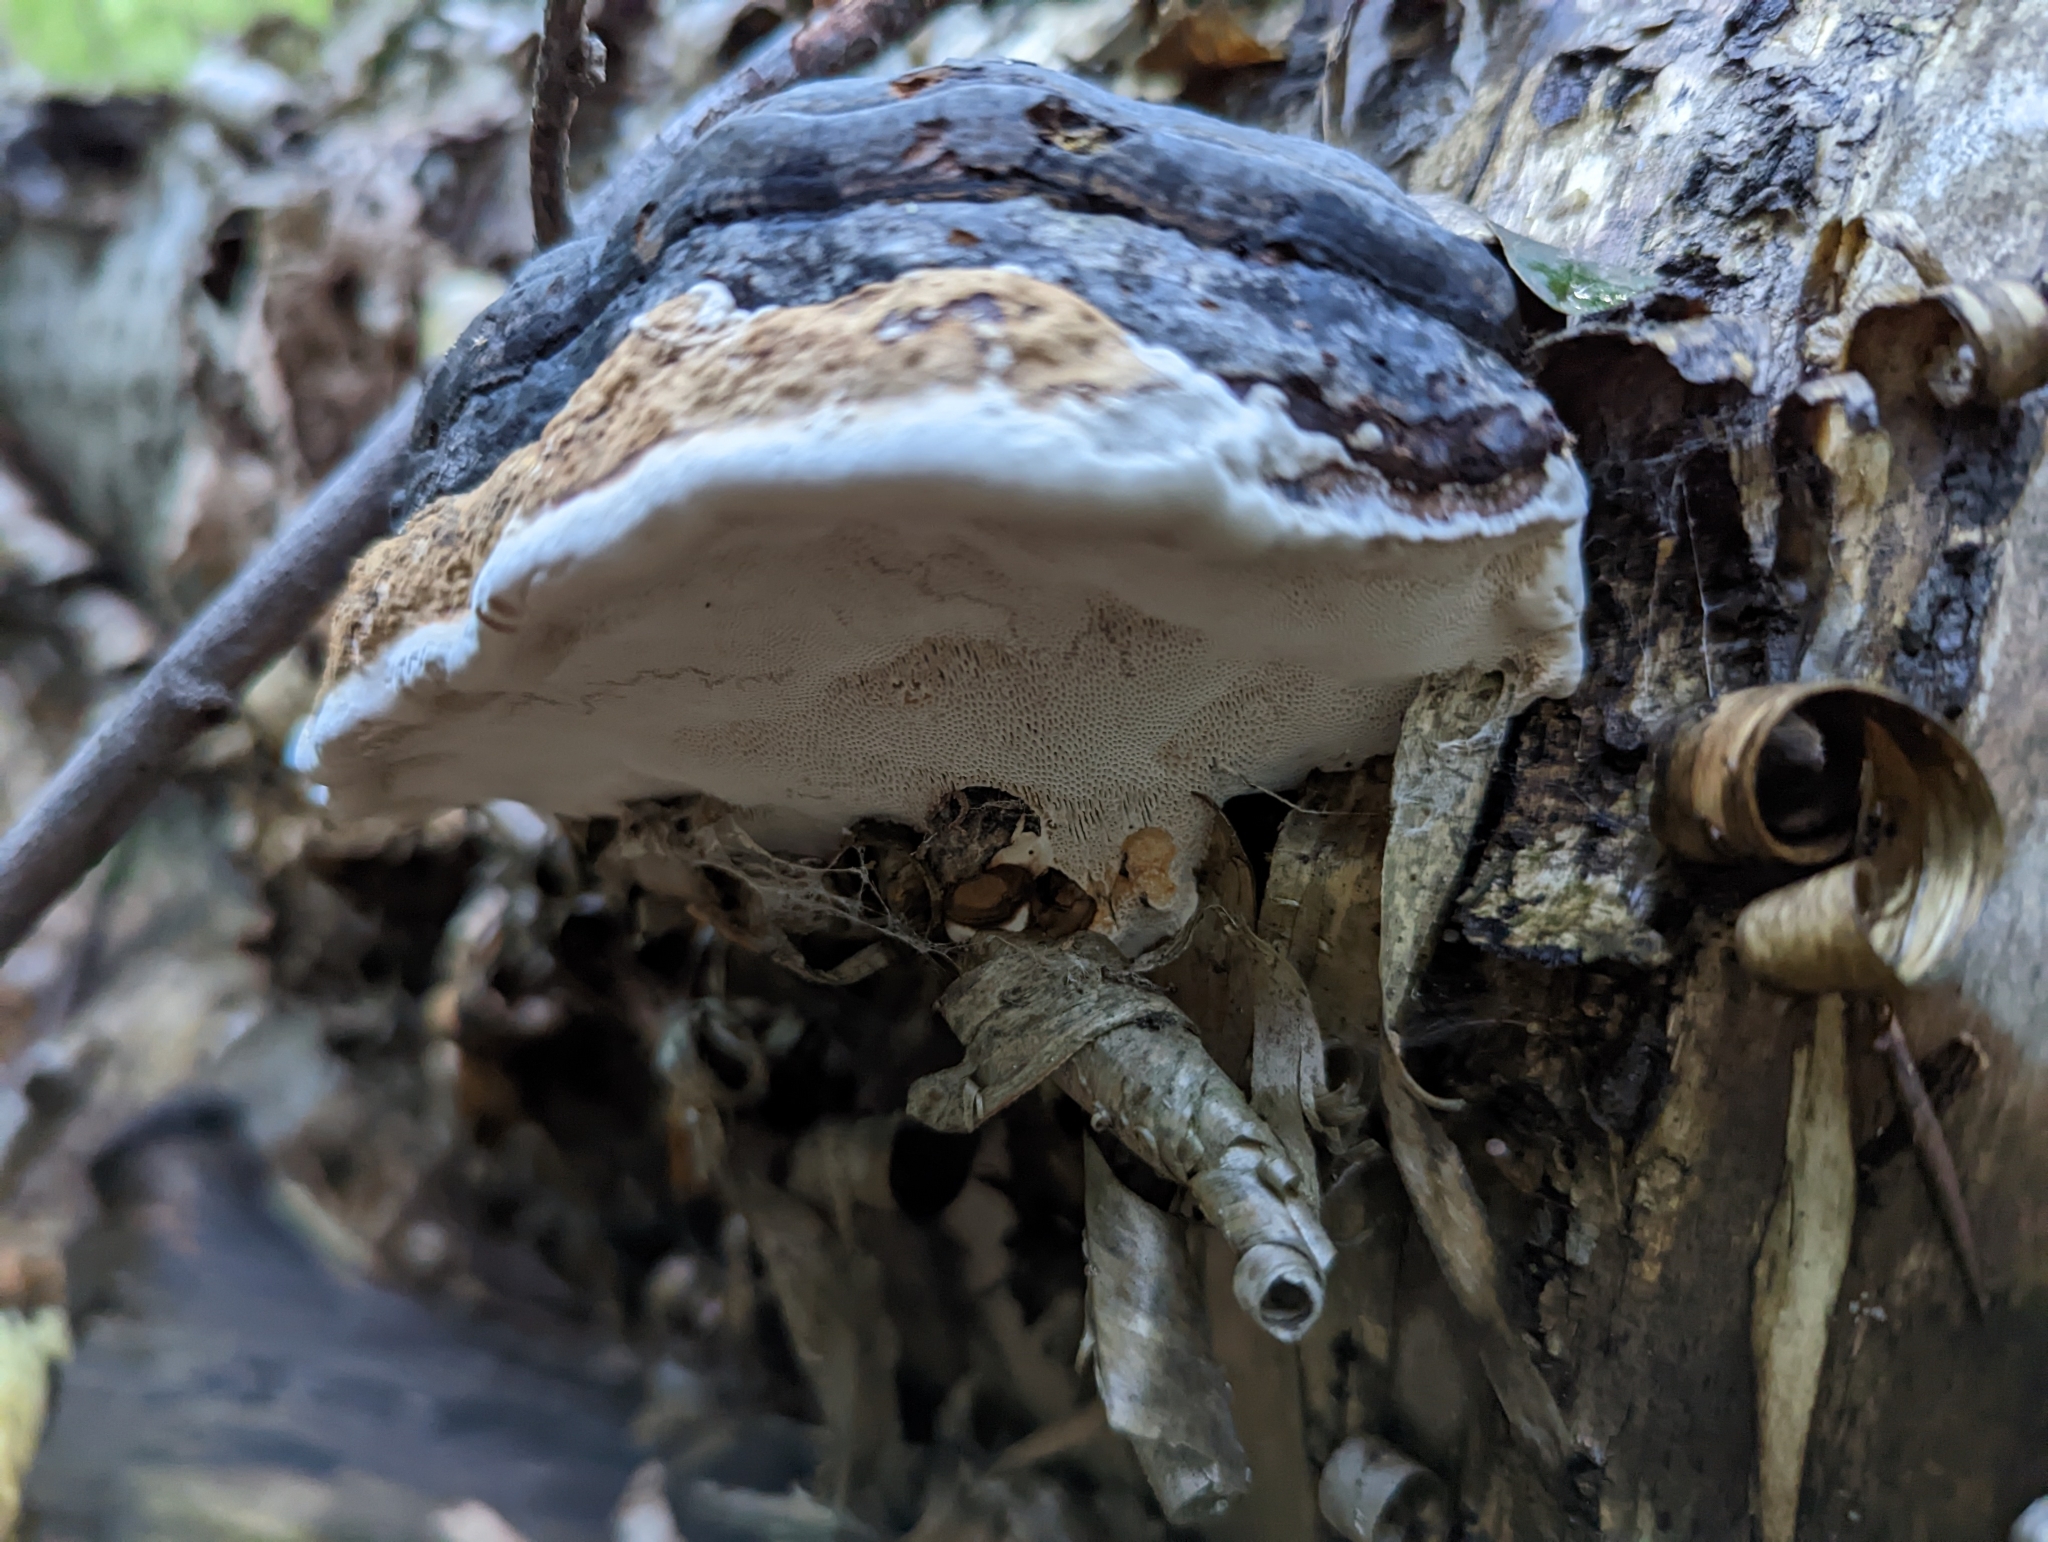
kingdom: Fungi
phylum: Basidiomycota
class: Agaricomycetes
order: Polyporales
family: Polyporaceae
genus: Fomes
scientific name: Fomes fomentarius
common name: Hoof fungus
